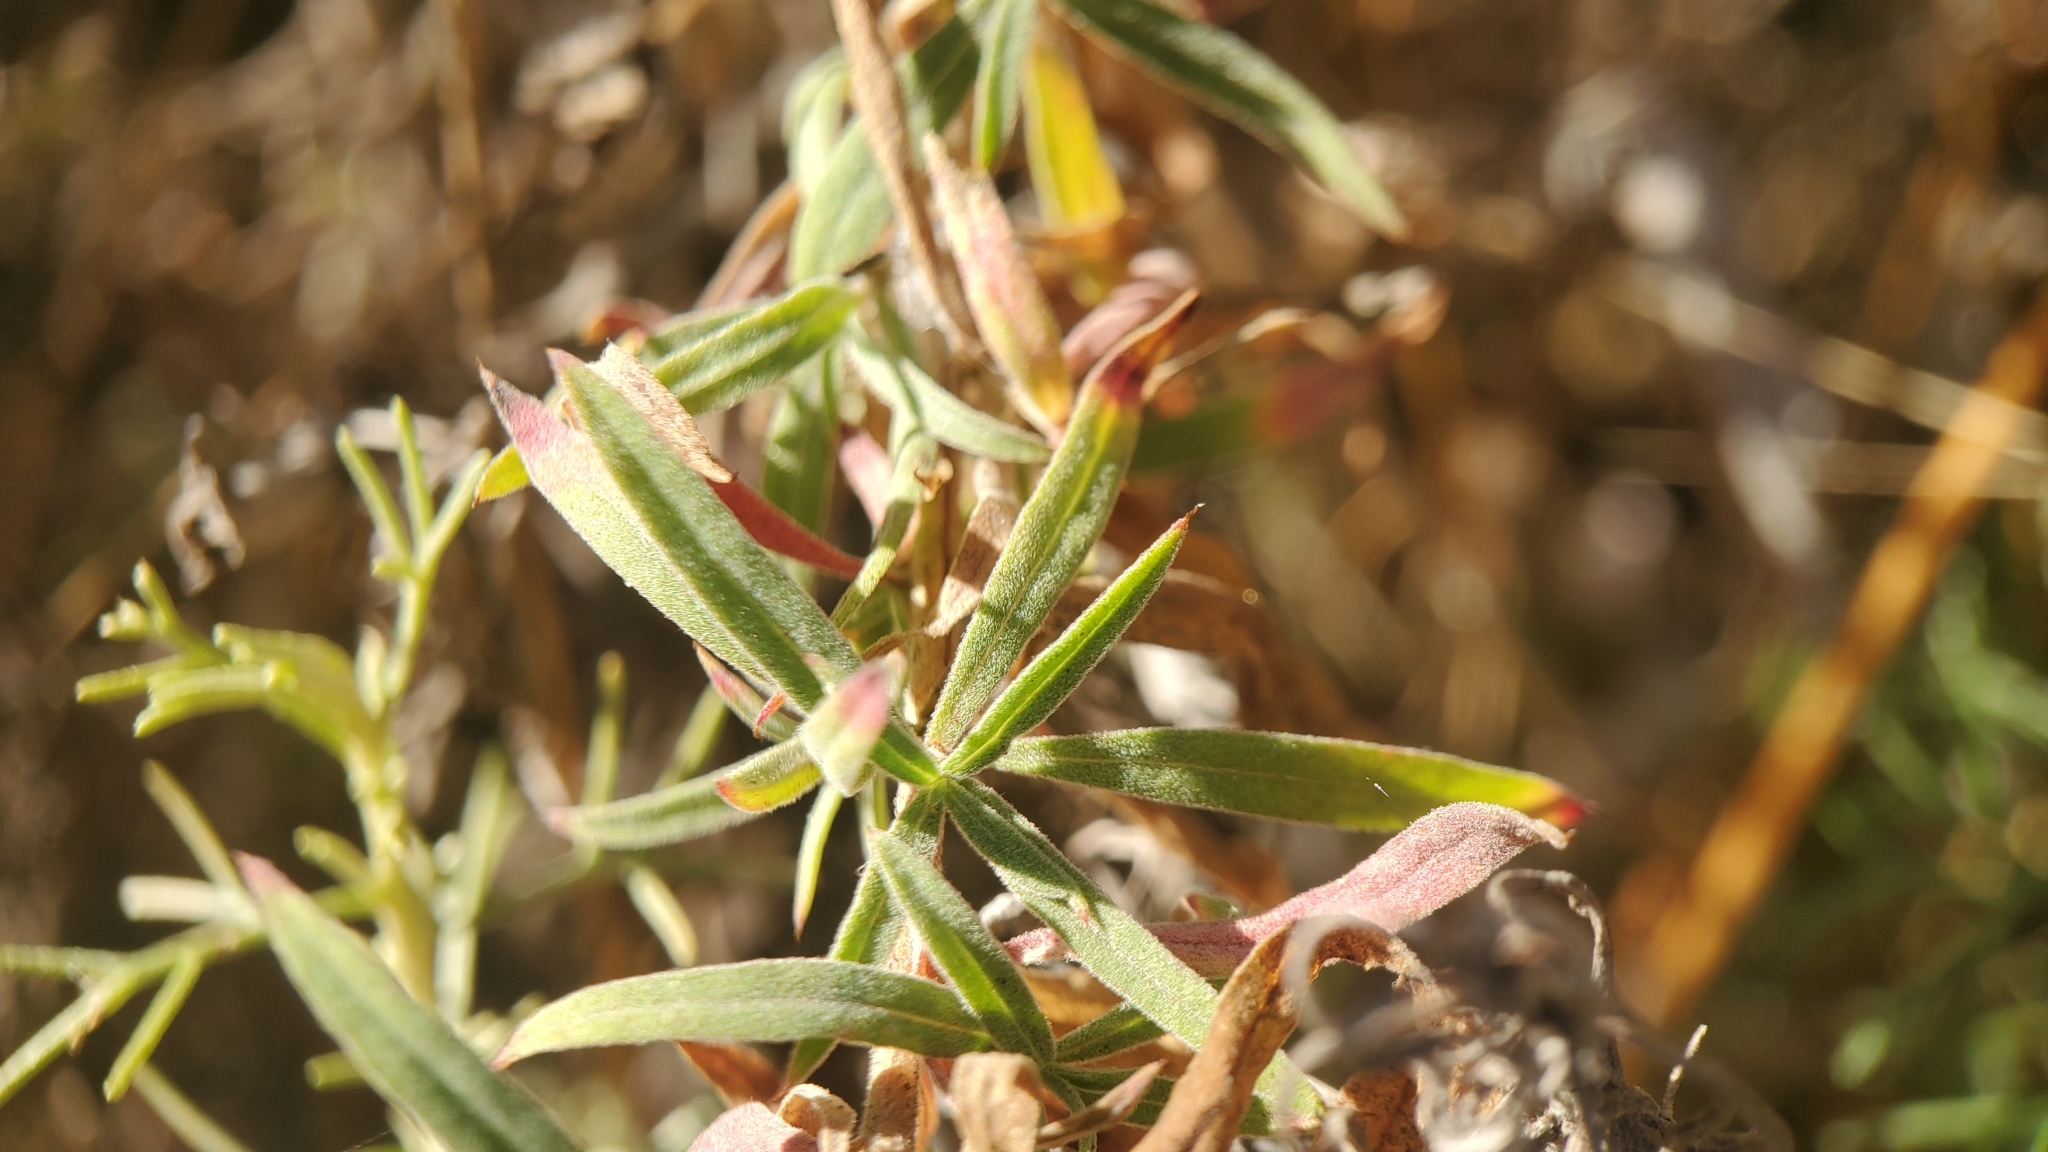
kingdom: Plantae
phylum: Tracheophyta
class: Magnoliopsida
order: Myrtales
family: Onagraceae
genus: Epilobium
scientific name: Epilobium canum
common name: California-fuchsia
